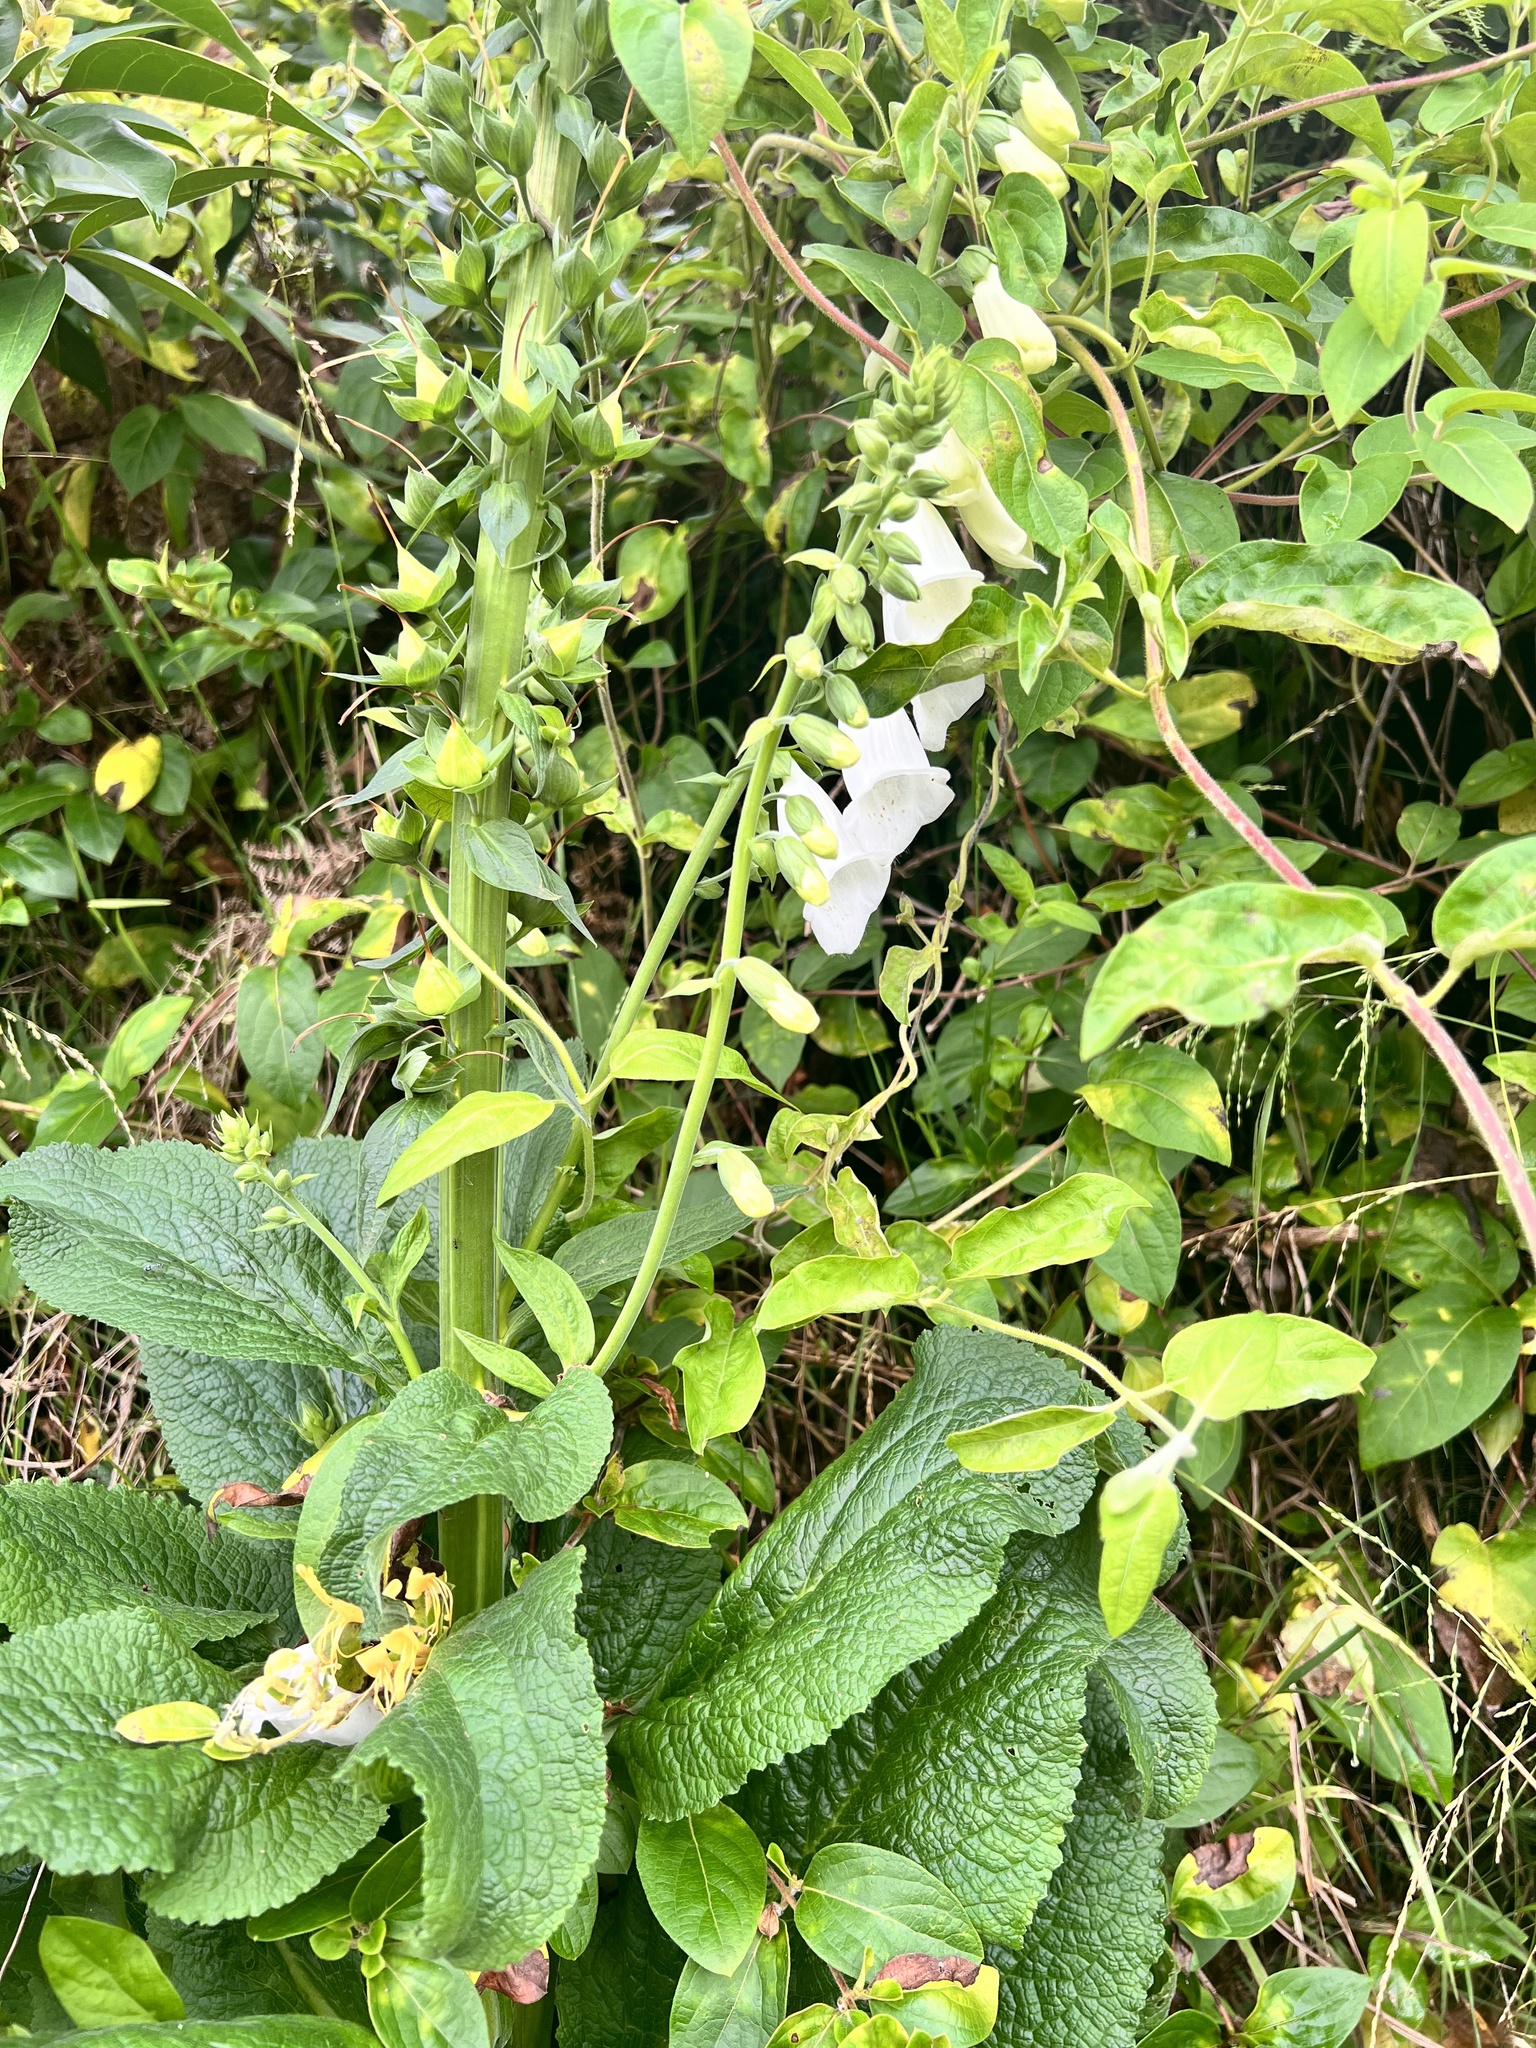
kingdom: Plantae
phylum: Tracheophyta
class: Magnoliopsida
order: Lamiales
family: Plantaginaceae
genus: Digitalis
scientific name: Digitalis purpurea
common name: Foxglove
